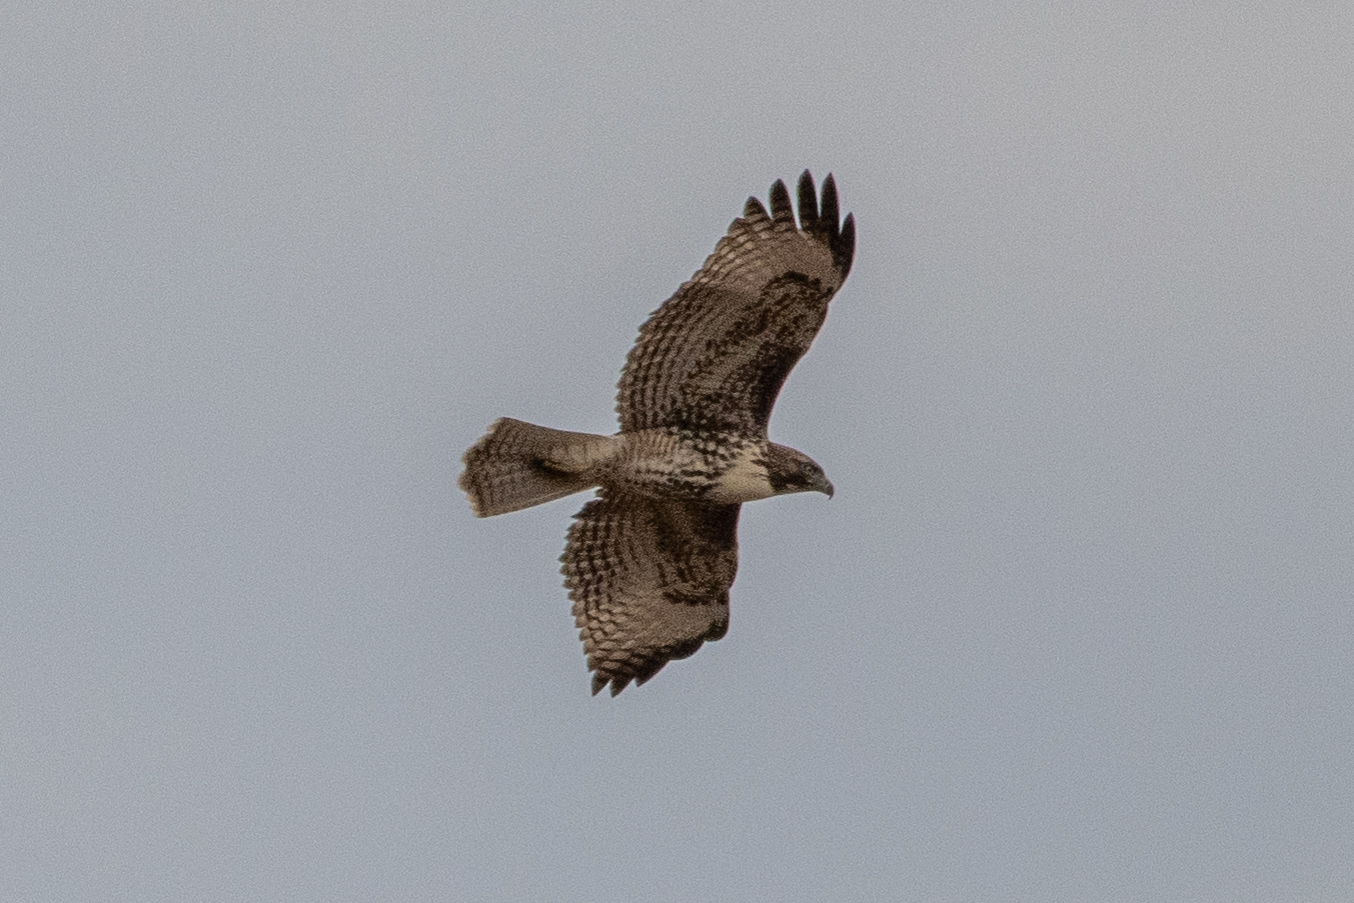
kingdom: Animalia
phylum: Chordata
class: Aves
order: Accipitriformes
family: Accipitridae
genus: Buteo
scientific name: Buteo jamaicensis
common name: Red-tailed hawk
